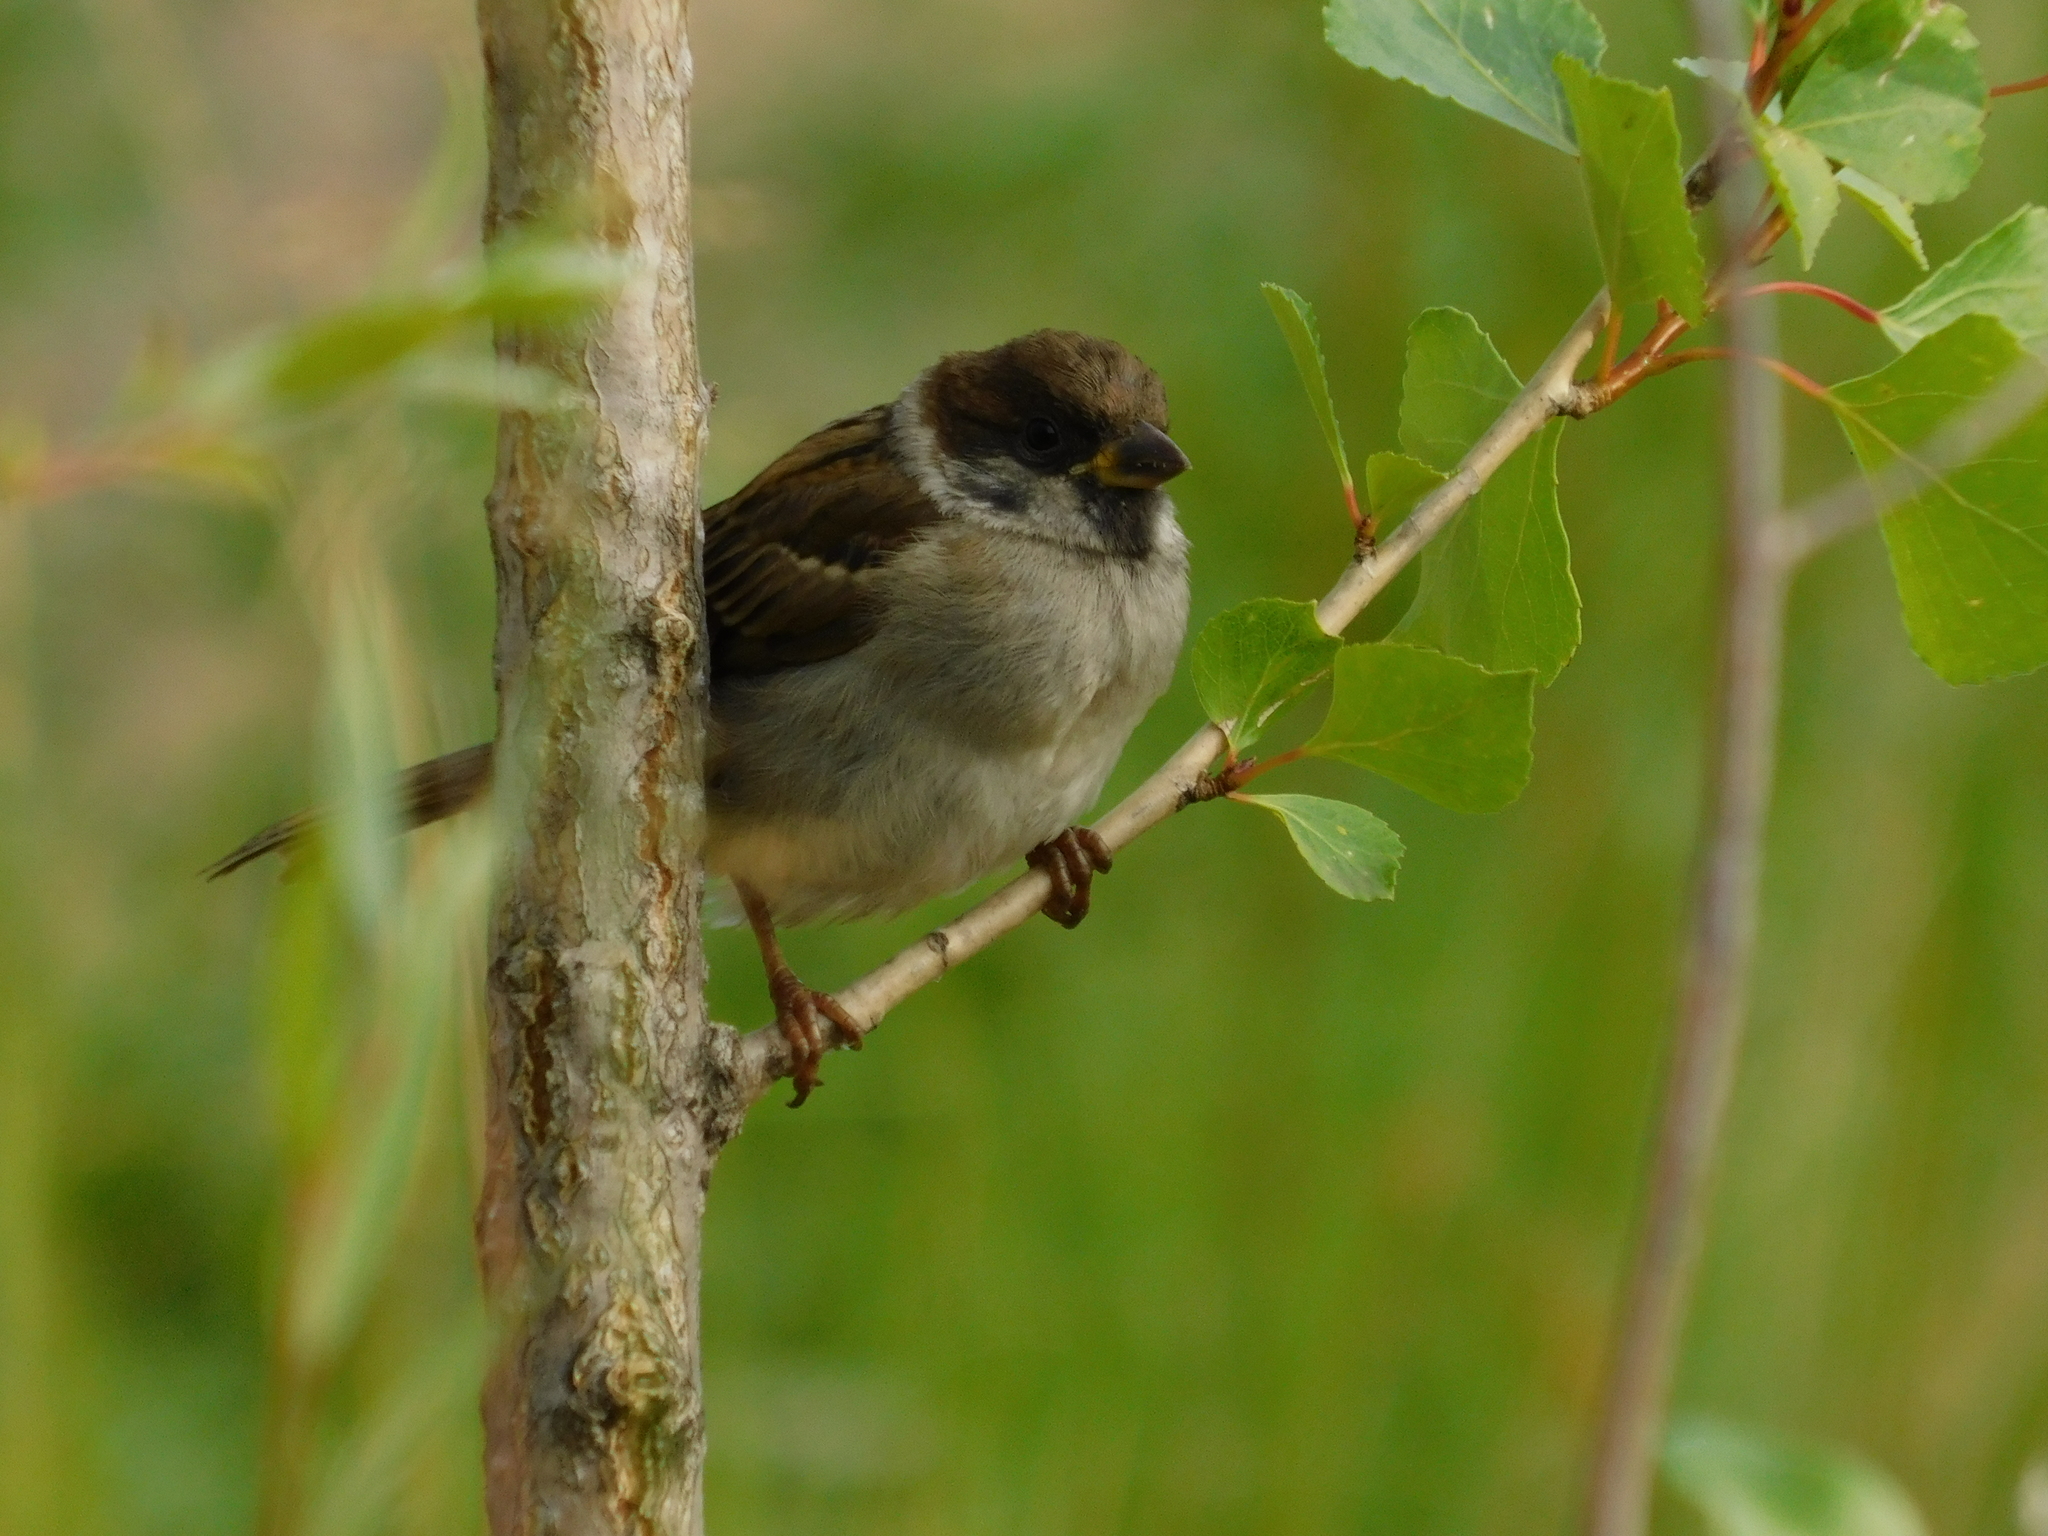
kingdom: Animalia
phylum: Chordata
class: Aves
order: Passeriformes
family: Passeridae
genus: Passer
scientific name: Passer montanus
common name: Eurasian tree sparrow
